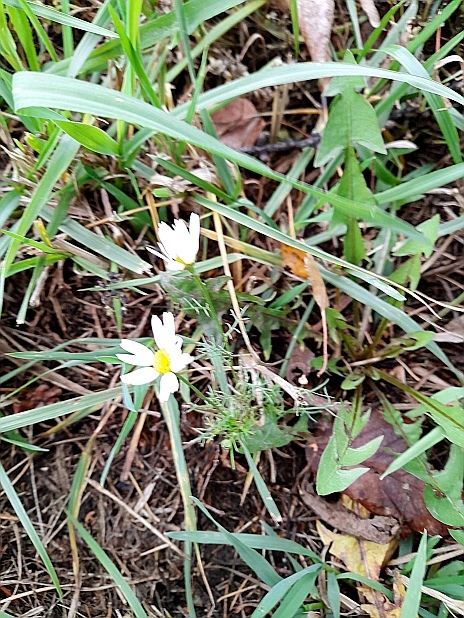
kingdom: Plantae
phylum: Tracheophyta
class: Magnoliopsida
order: Asterales
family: Asteraceae
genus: Tripleurospermum
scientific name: Tripleurospermum inodorum
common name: Scentless mayweed
